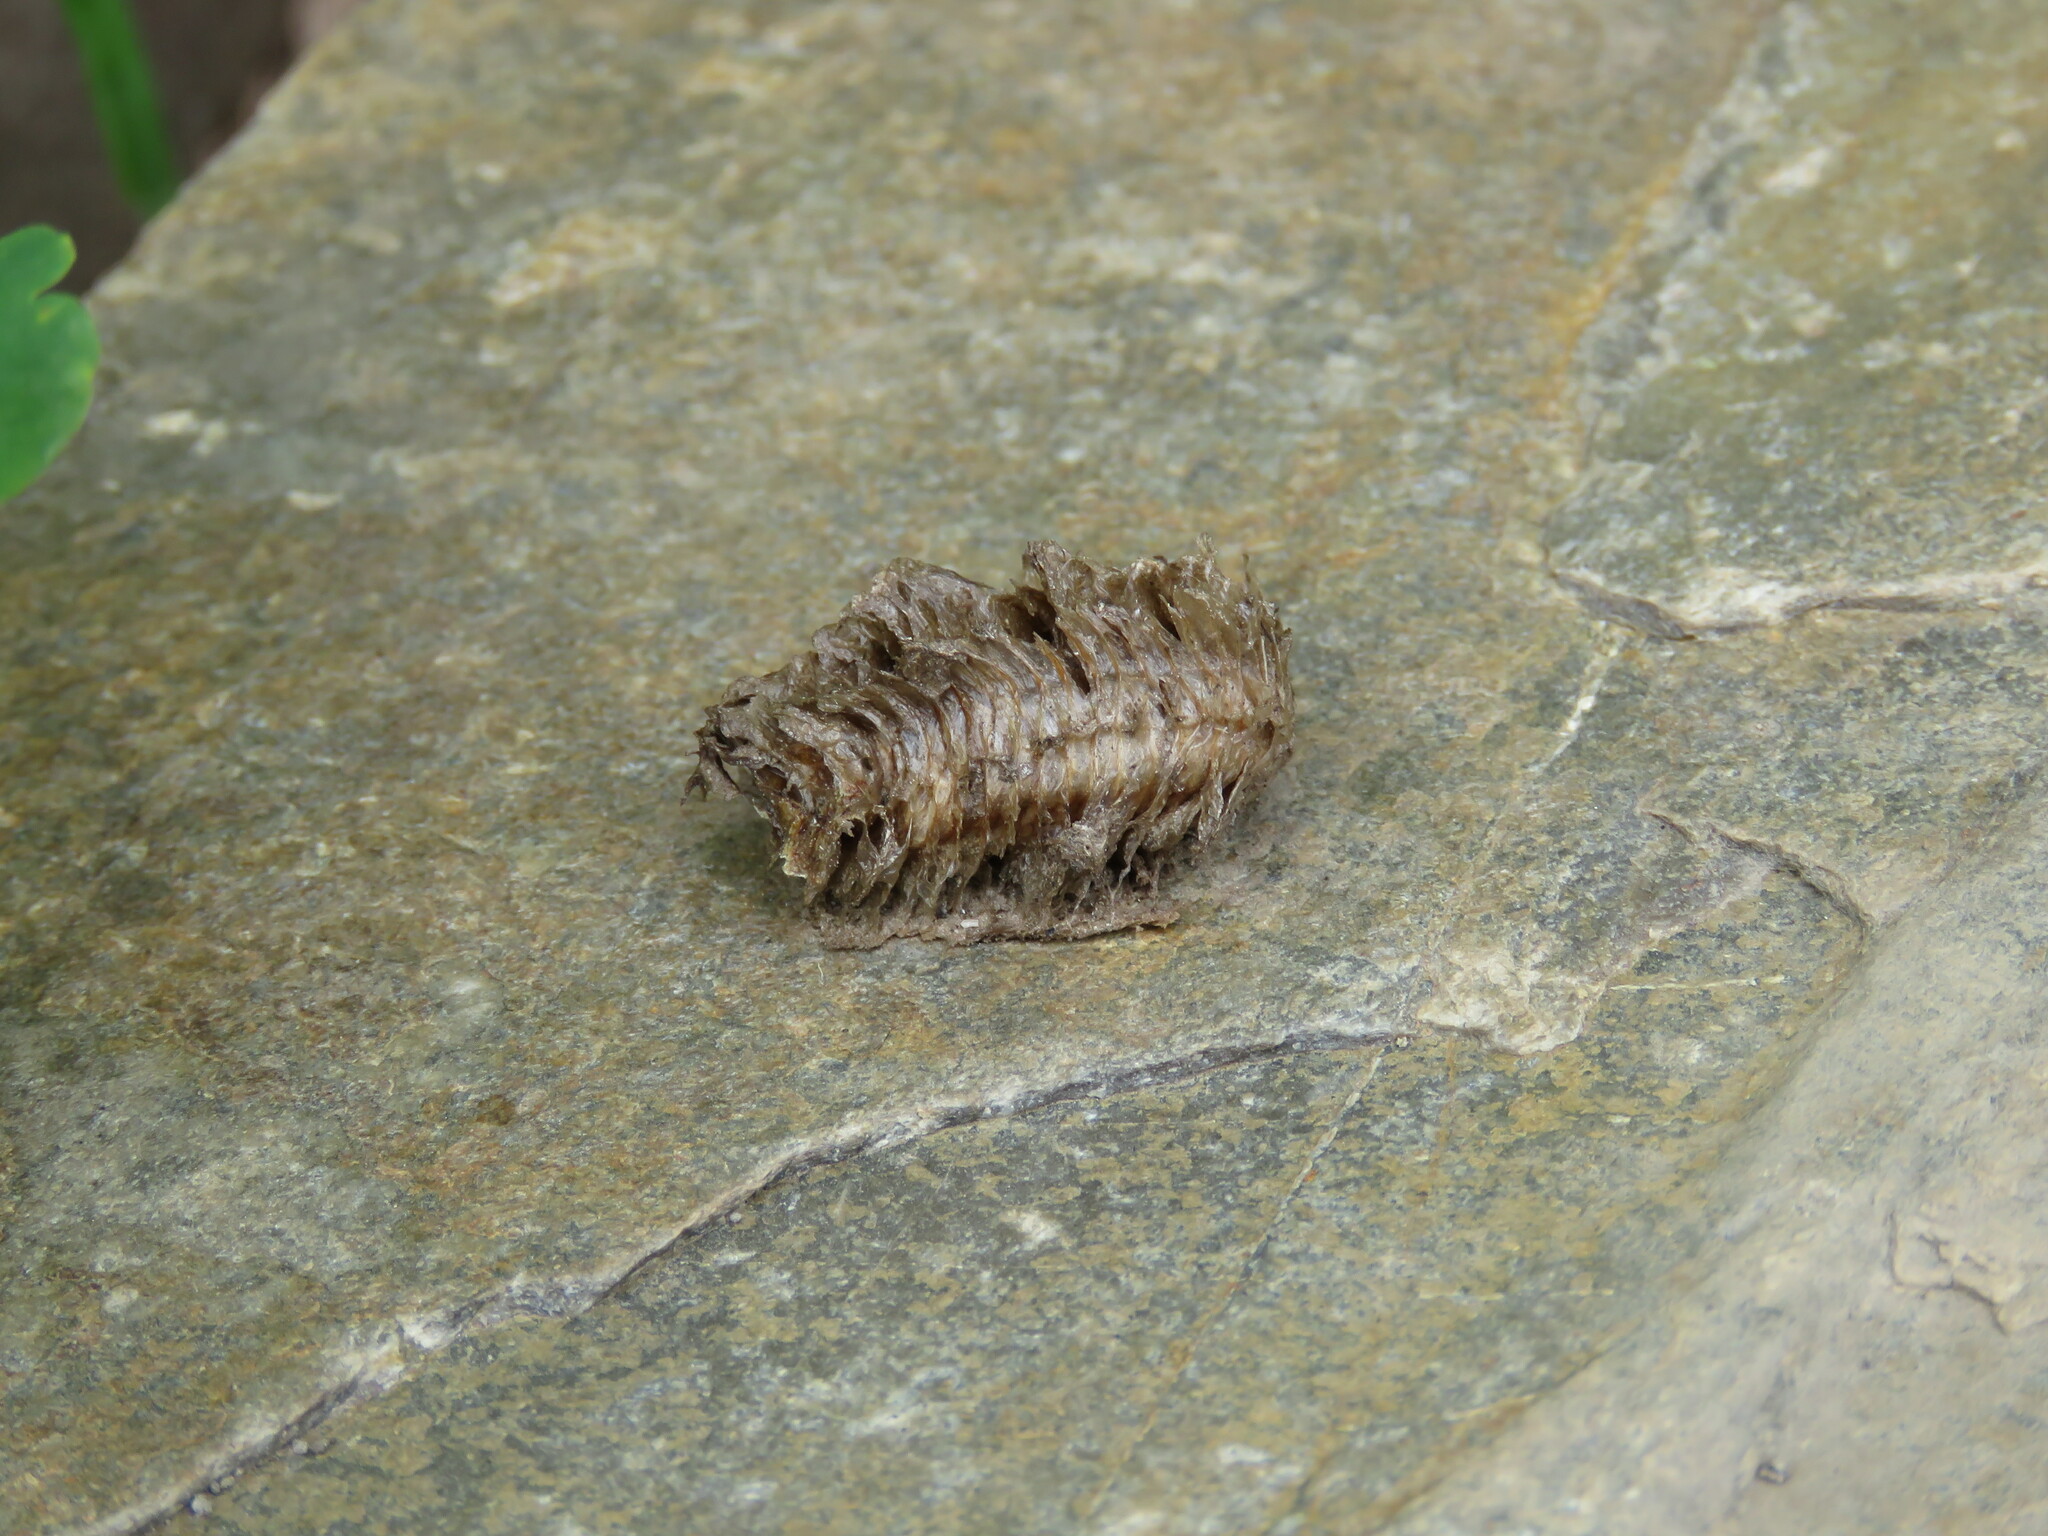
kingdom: Animalia
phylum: Arthropoda
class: Insecta
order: Mantodea
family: Mantidae
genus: Mantis
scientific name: Mantis religiosa
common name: Praying mantis
